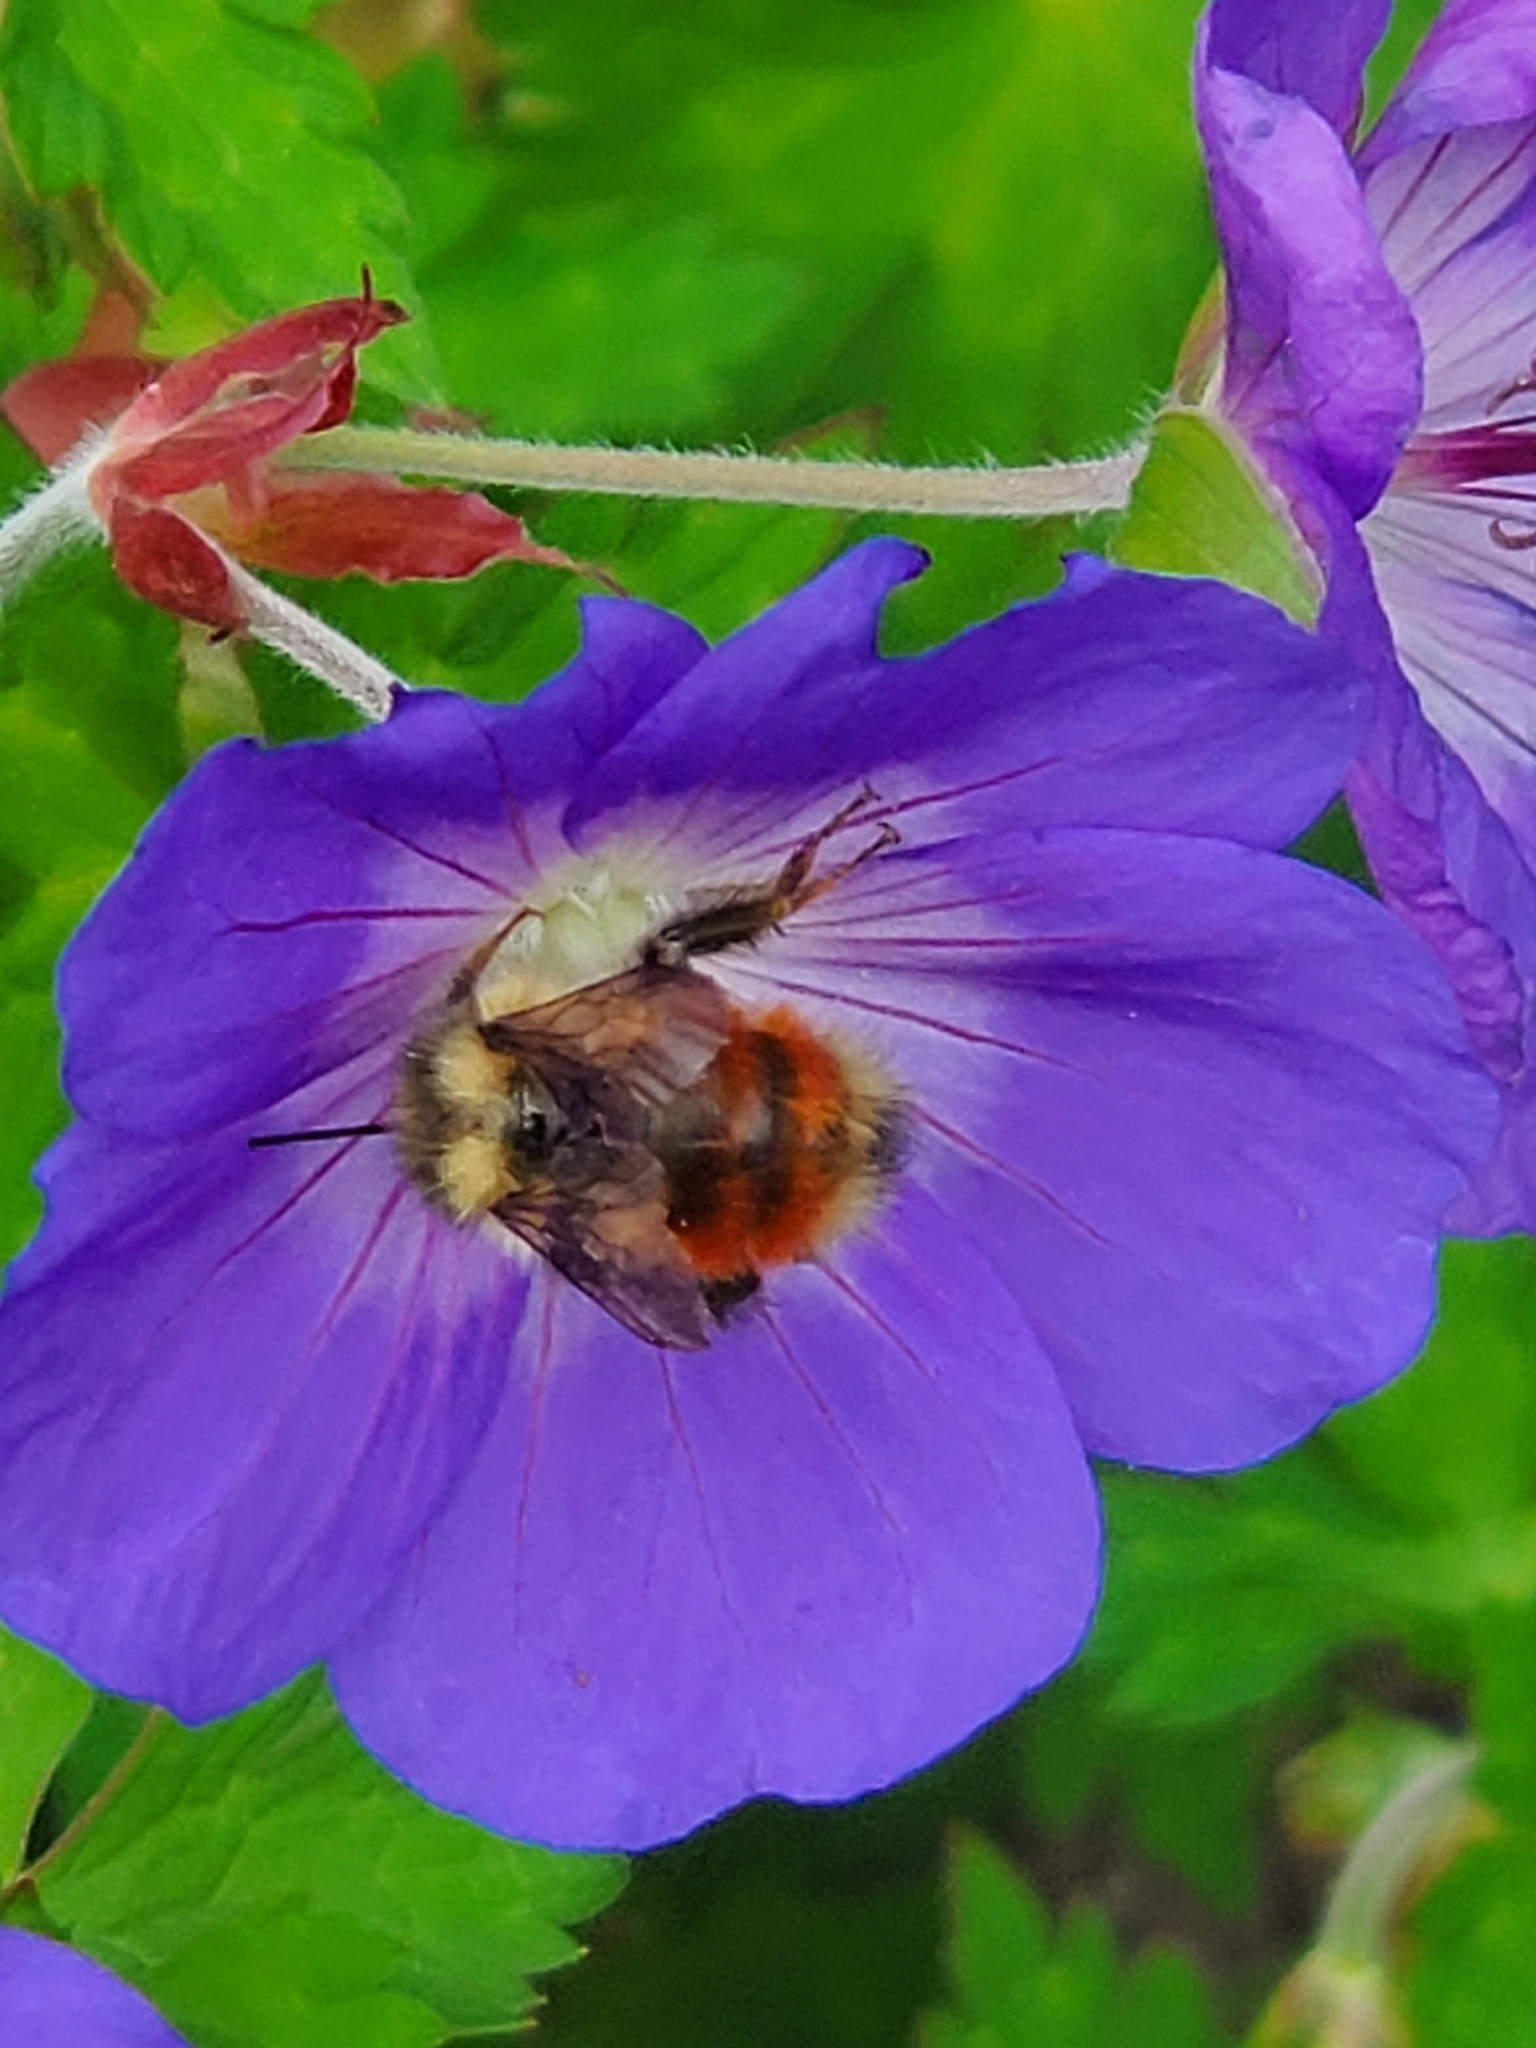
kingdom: Animalia
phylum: Arthropoda
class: Insecta
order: Hymenoptera
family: Apidae
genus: Bombus
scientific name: Bombus melanopygus
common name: Black tail bumble bee
